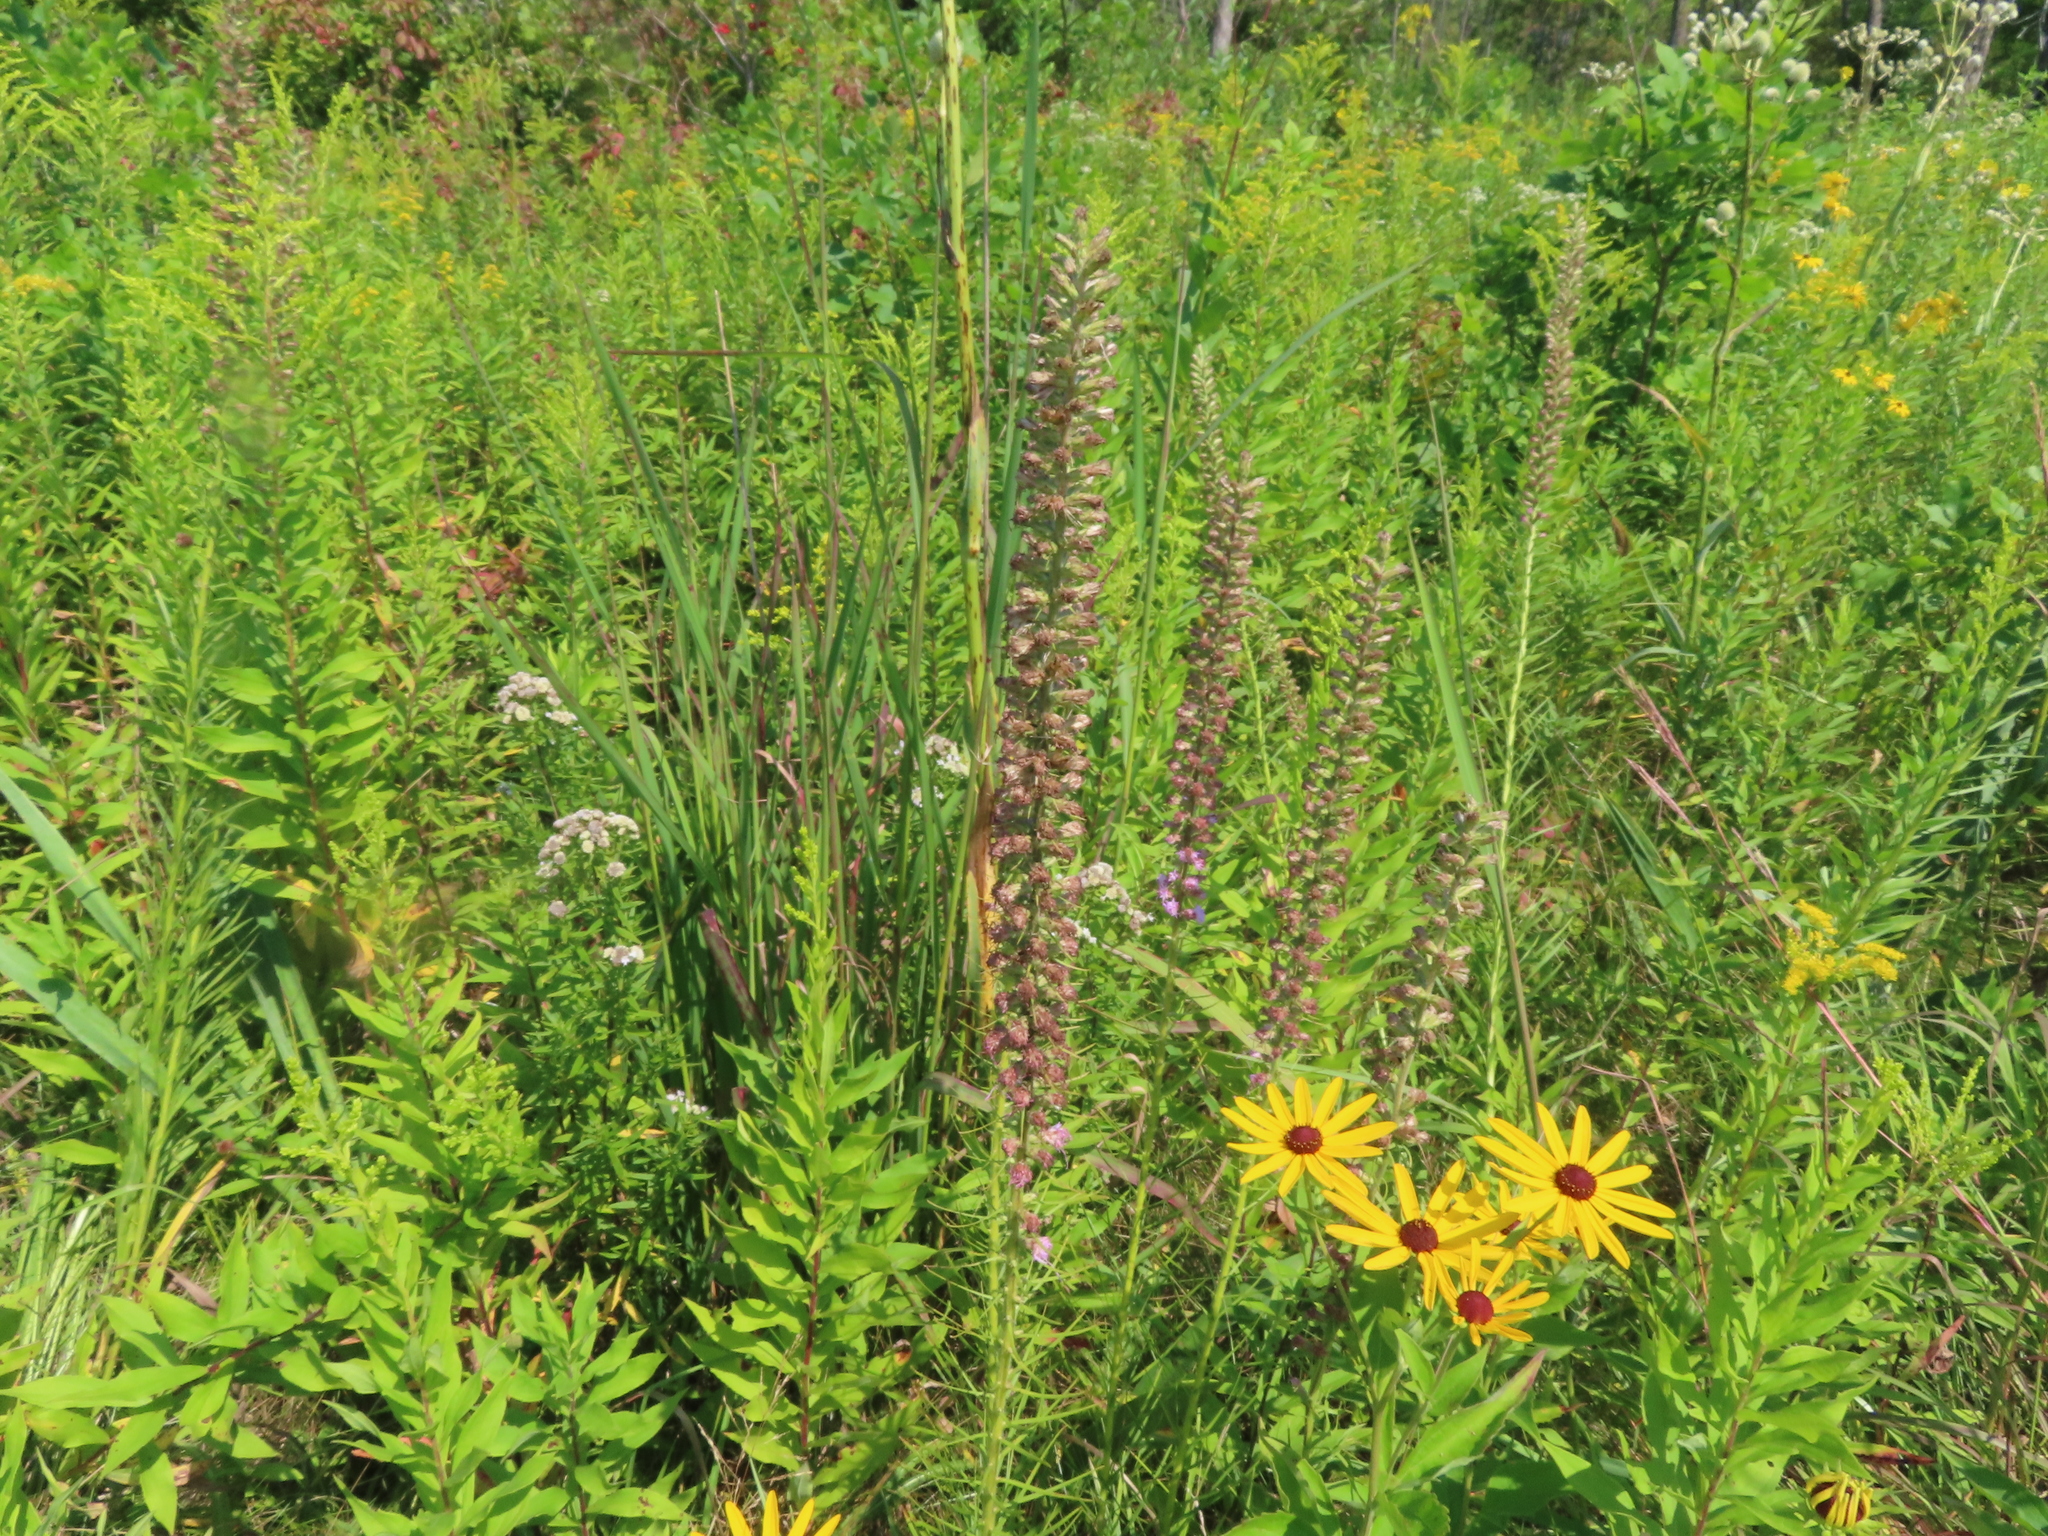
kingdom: Plantae
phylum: Tracheophyta
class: Magnoliopsida
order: Asterales
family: Asteraceae
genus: Liatris
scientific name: Liatris pycnostachya
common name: Cattail gayfeather
